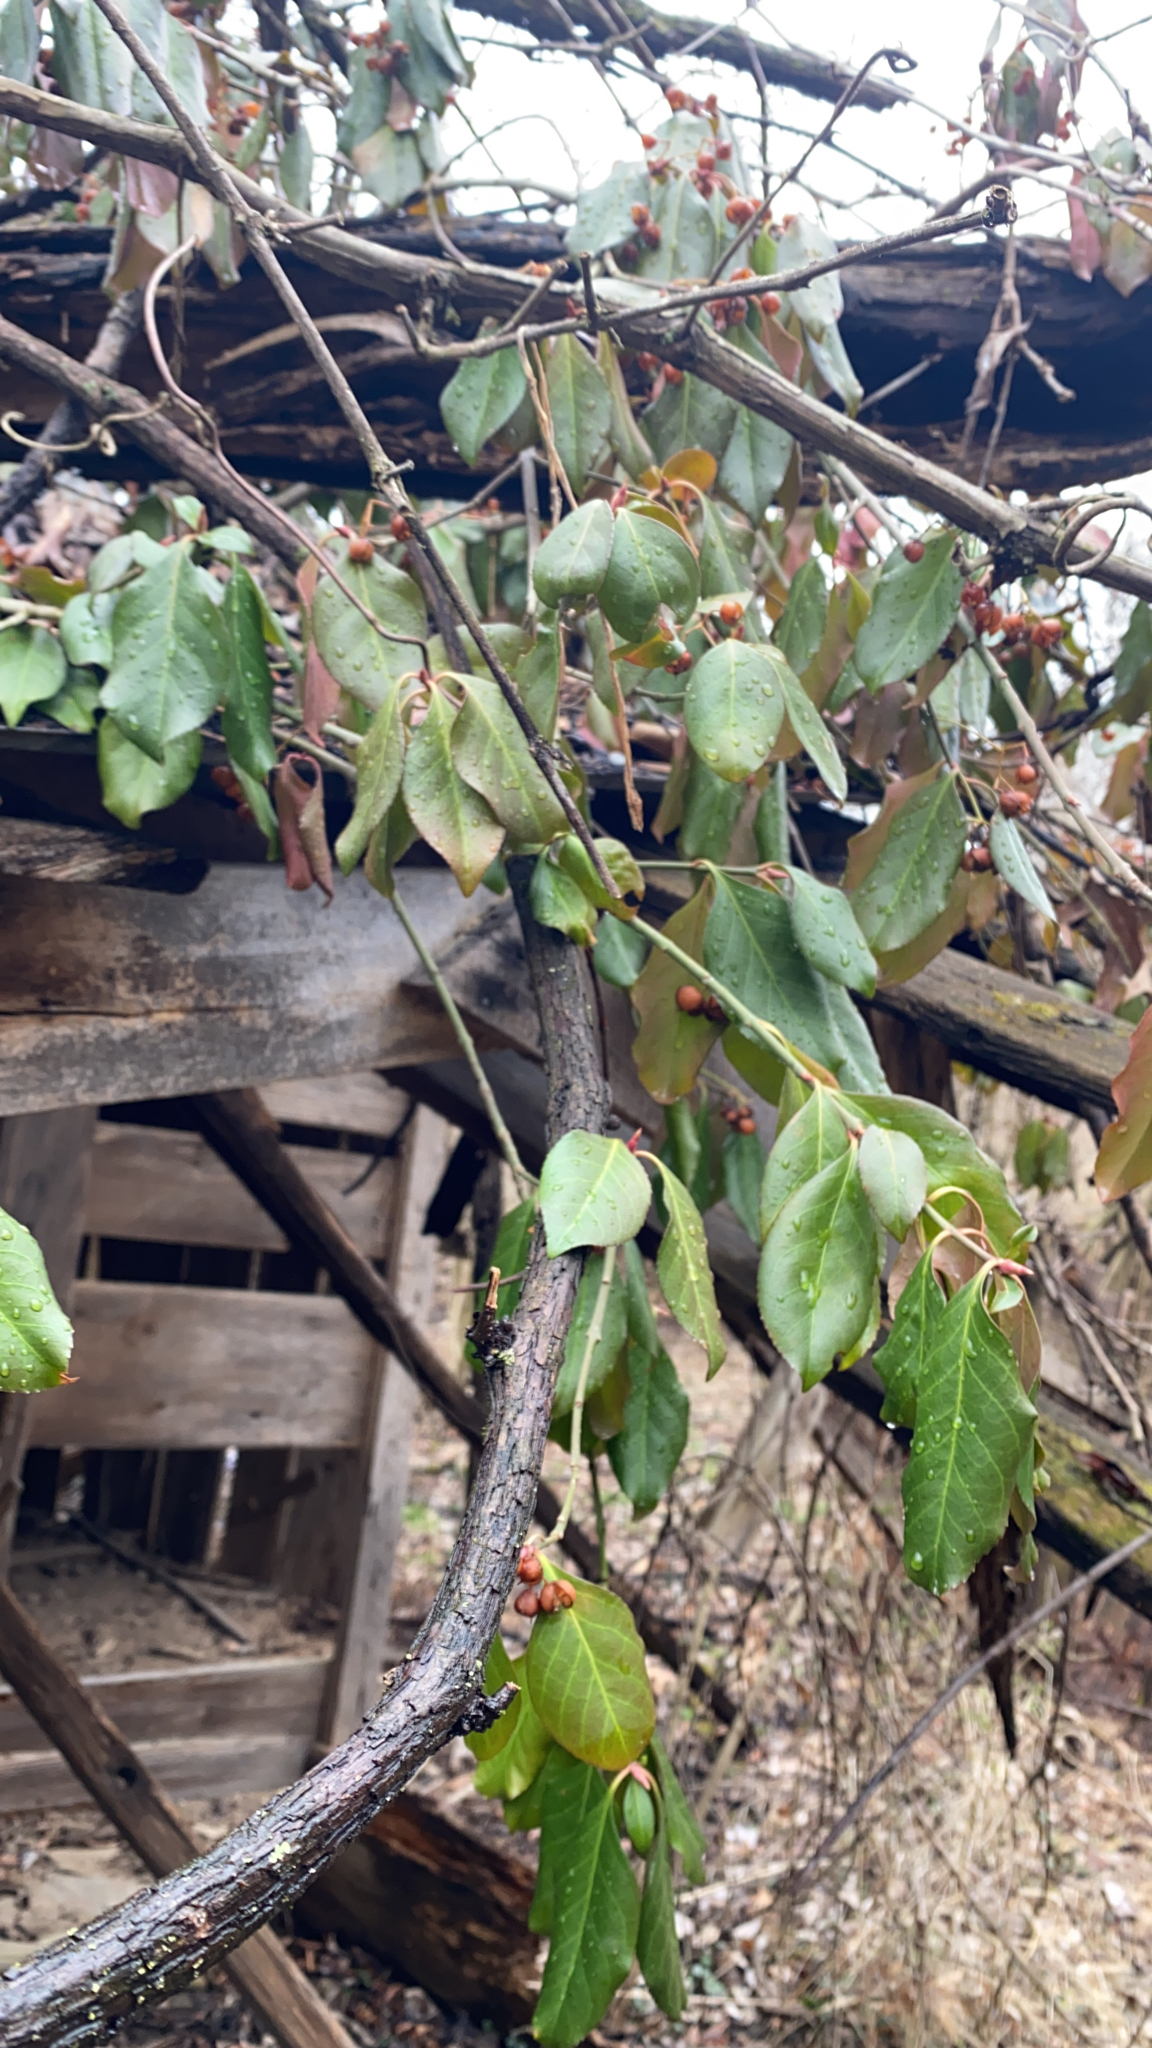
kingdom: Plantae
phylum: Tracheophyta
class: Magnoliopsida
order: Celastrales
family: Celastraceae
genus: Euonymus
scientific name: Euonymus fortunei
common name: Climbing euonymus
